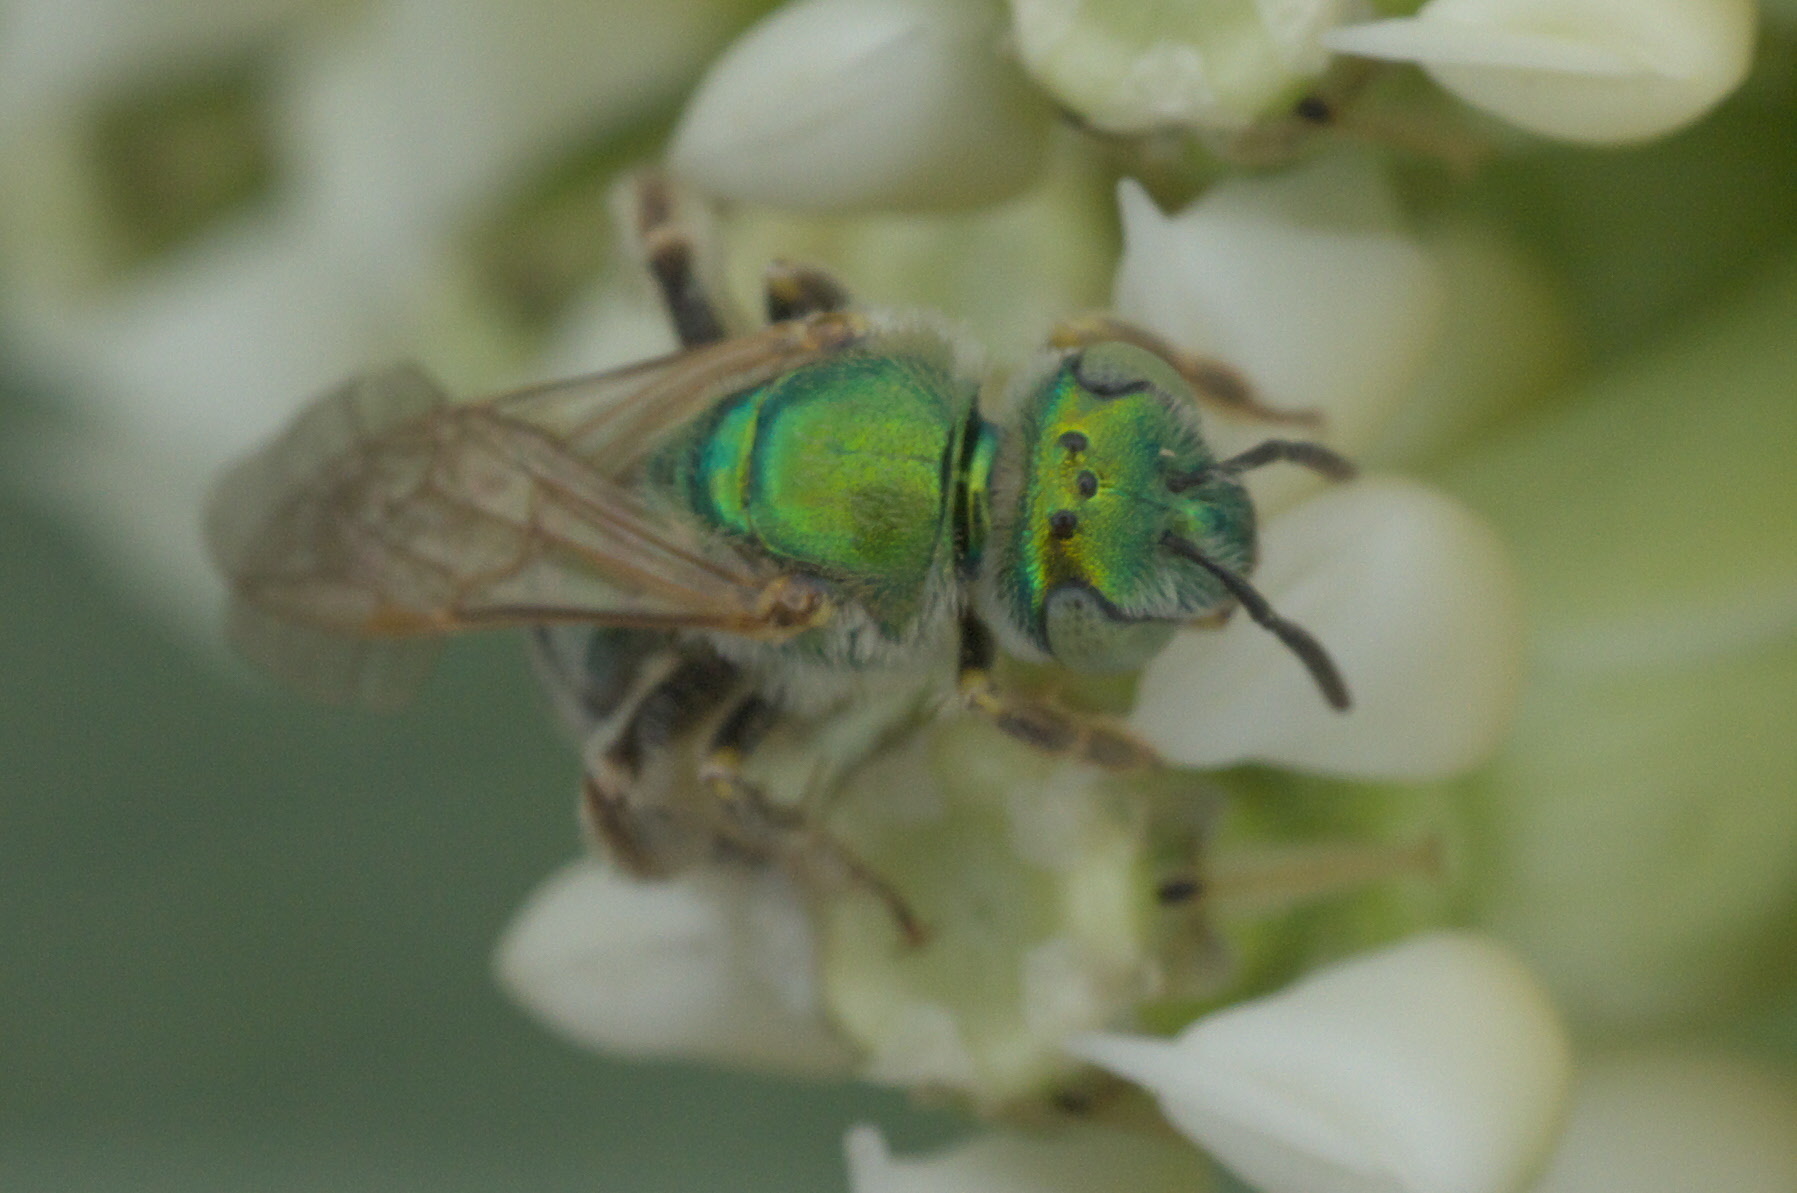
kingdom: Animalia
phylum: Arthropoda
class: Insecta
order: Hymenoptera
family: Halictidae
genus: Agapostemon
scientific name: Agapostemon
